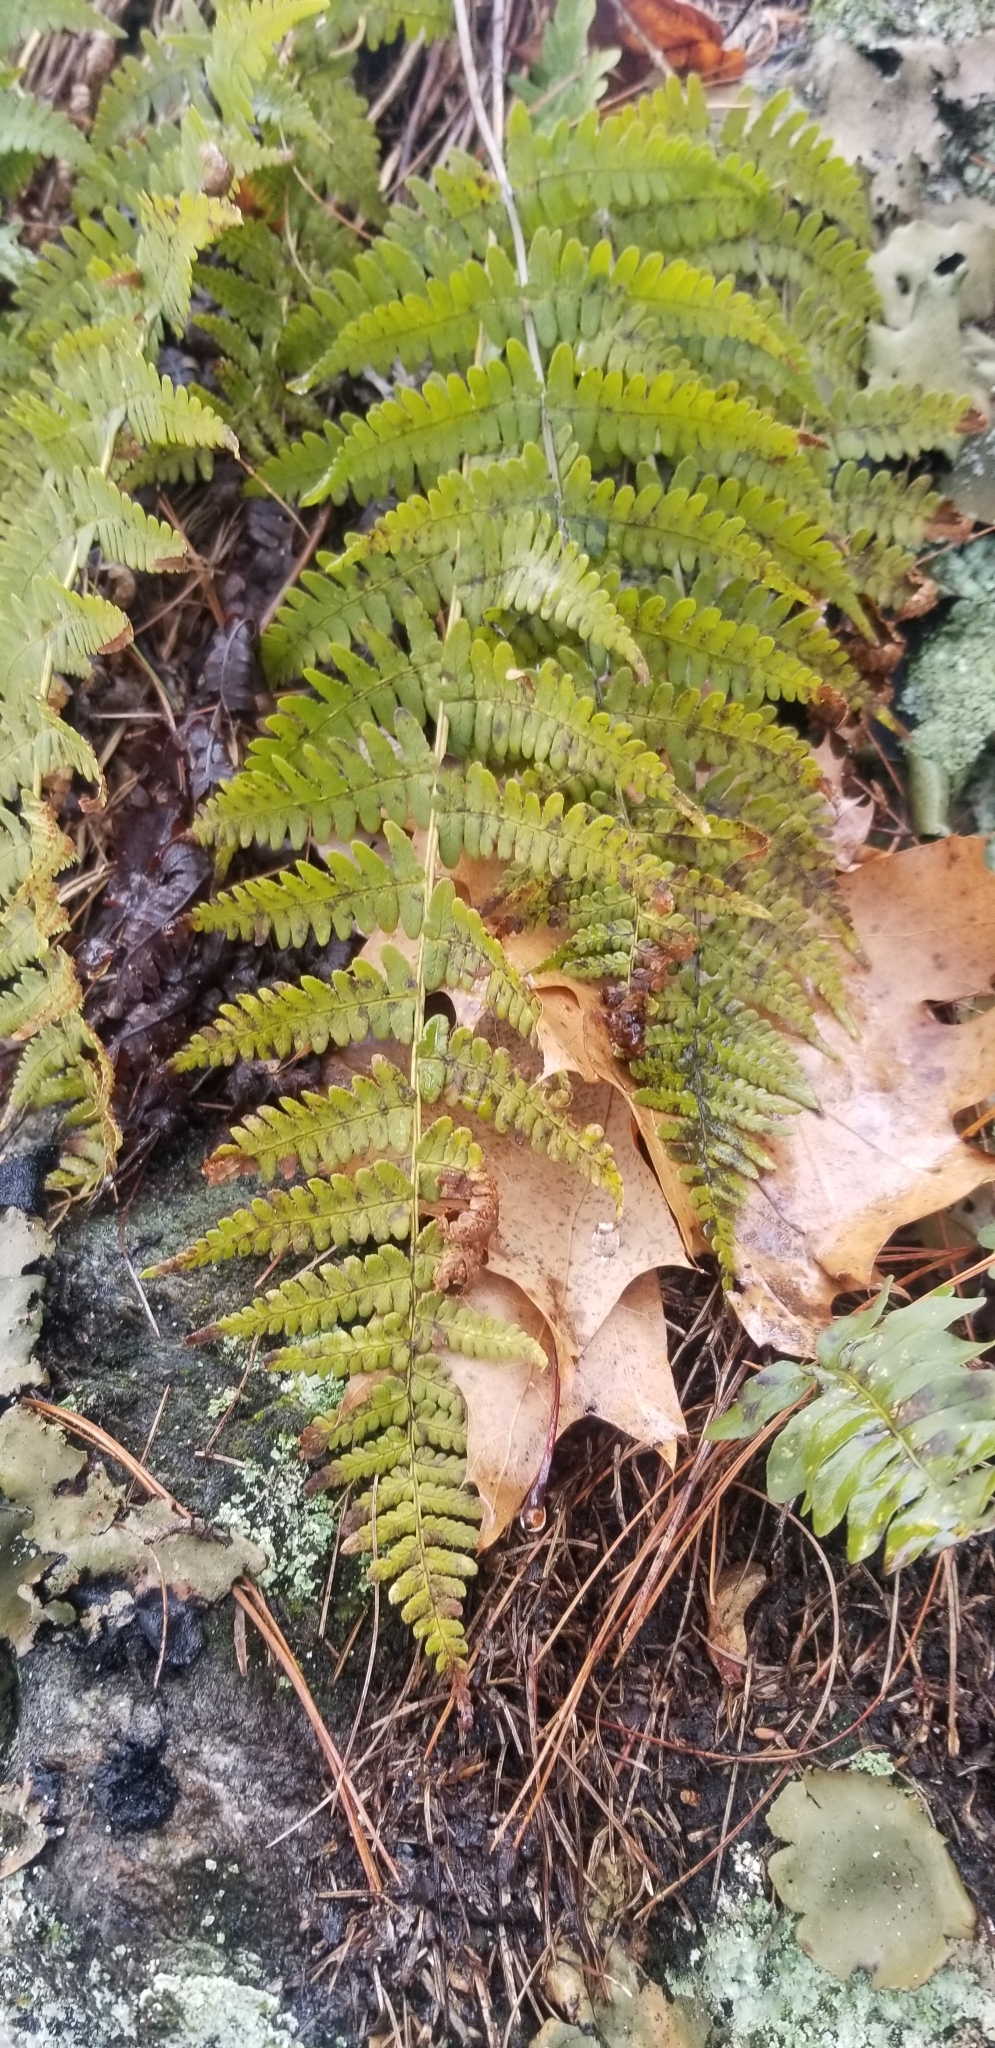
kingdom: Plantae
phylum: Tracheophyta
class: Polypodiopsida
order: Polypodiales
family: Dryopteridaceae
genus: Dryopteris
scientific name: Dryopteris marginalis
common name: Marginal wood fern
